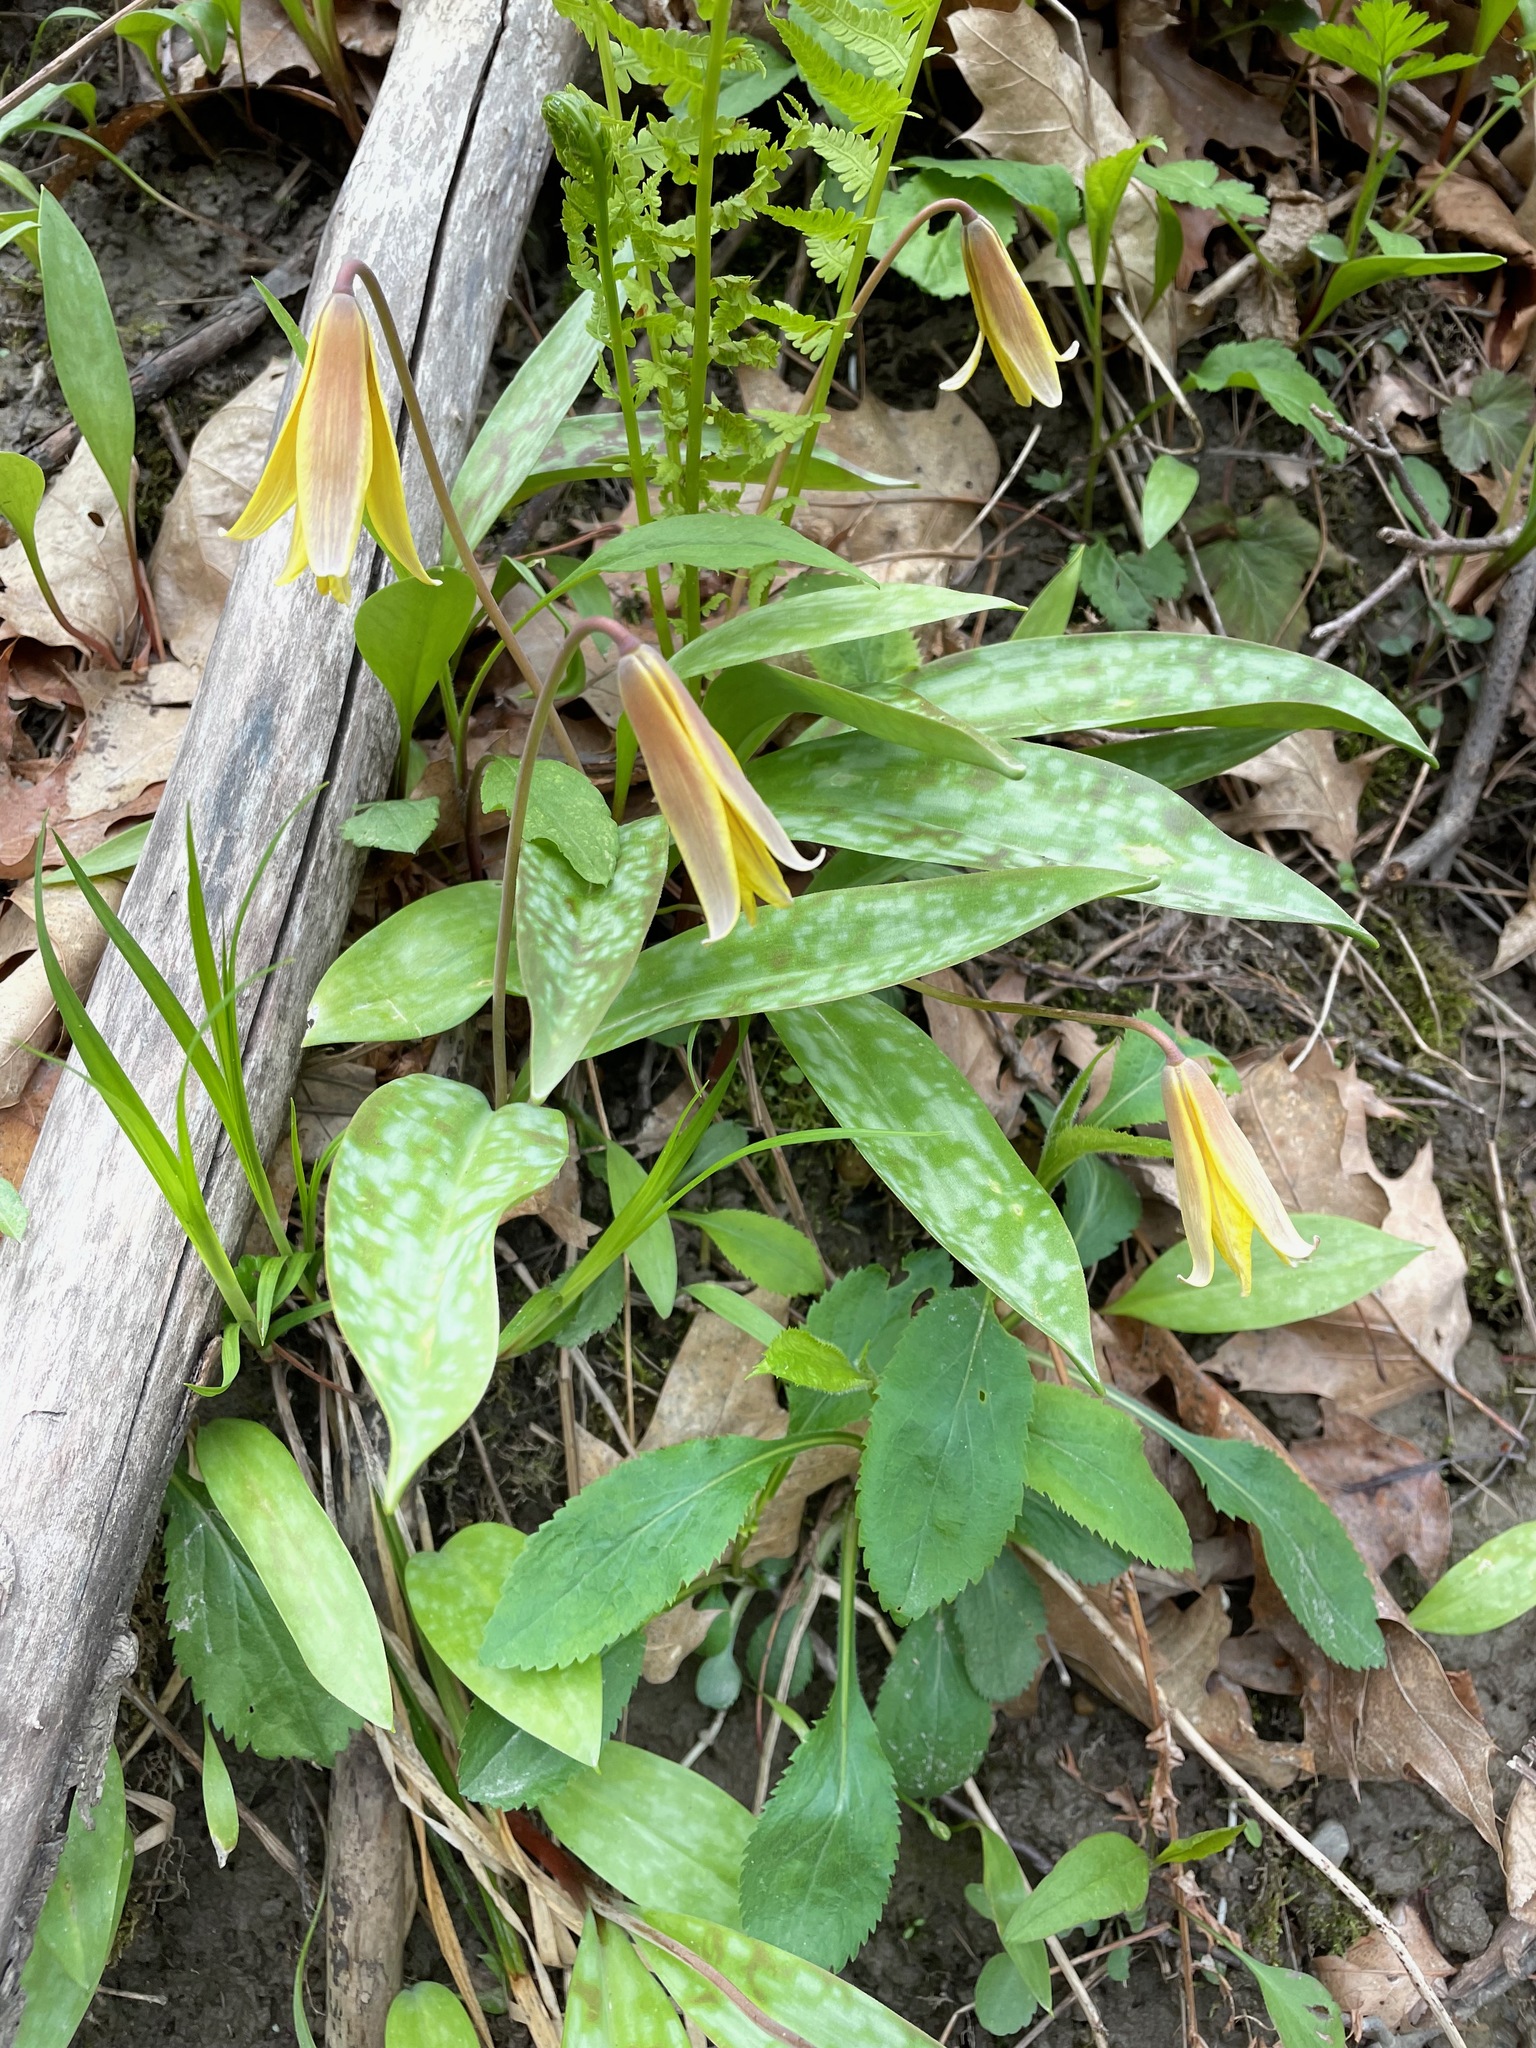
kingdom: Plantae
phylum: Tracheophyta
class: Liliopsida
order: Liliales
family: Liliaceae
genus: Erythronium
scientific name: Erythronium americanum
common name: Yellow adder's-tongue
